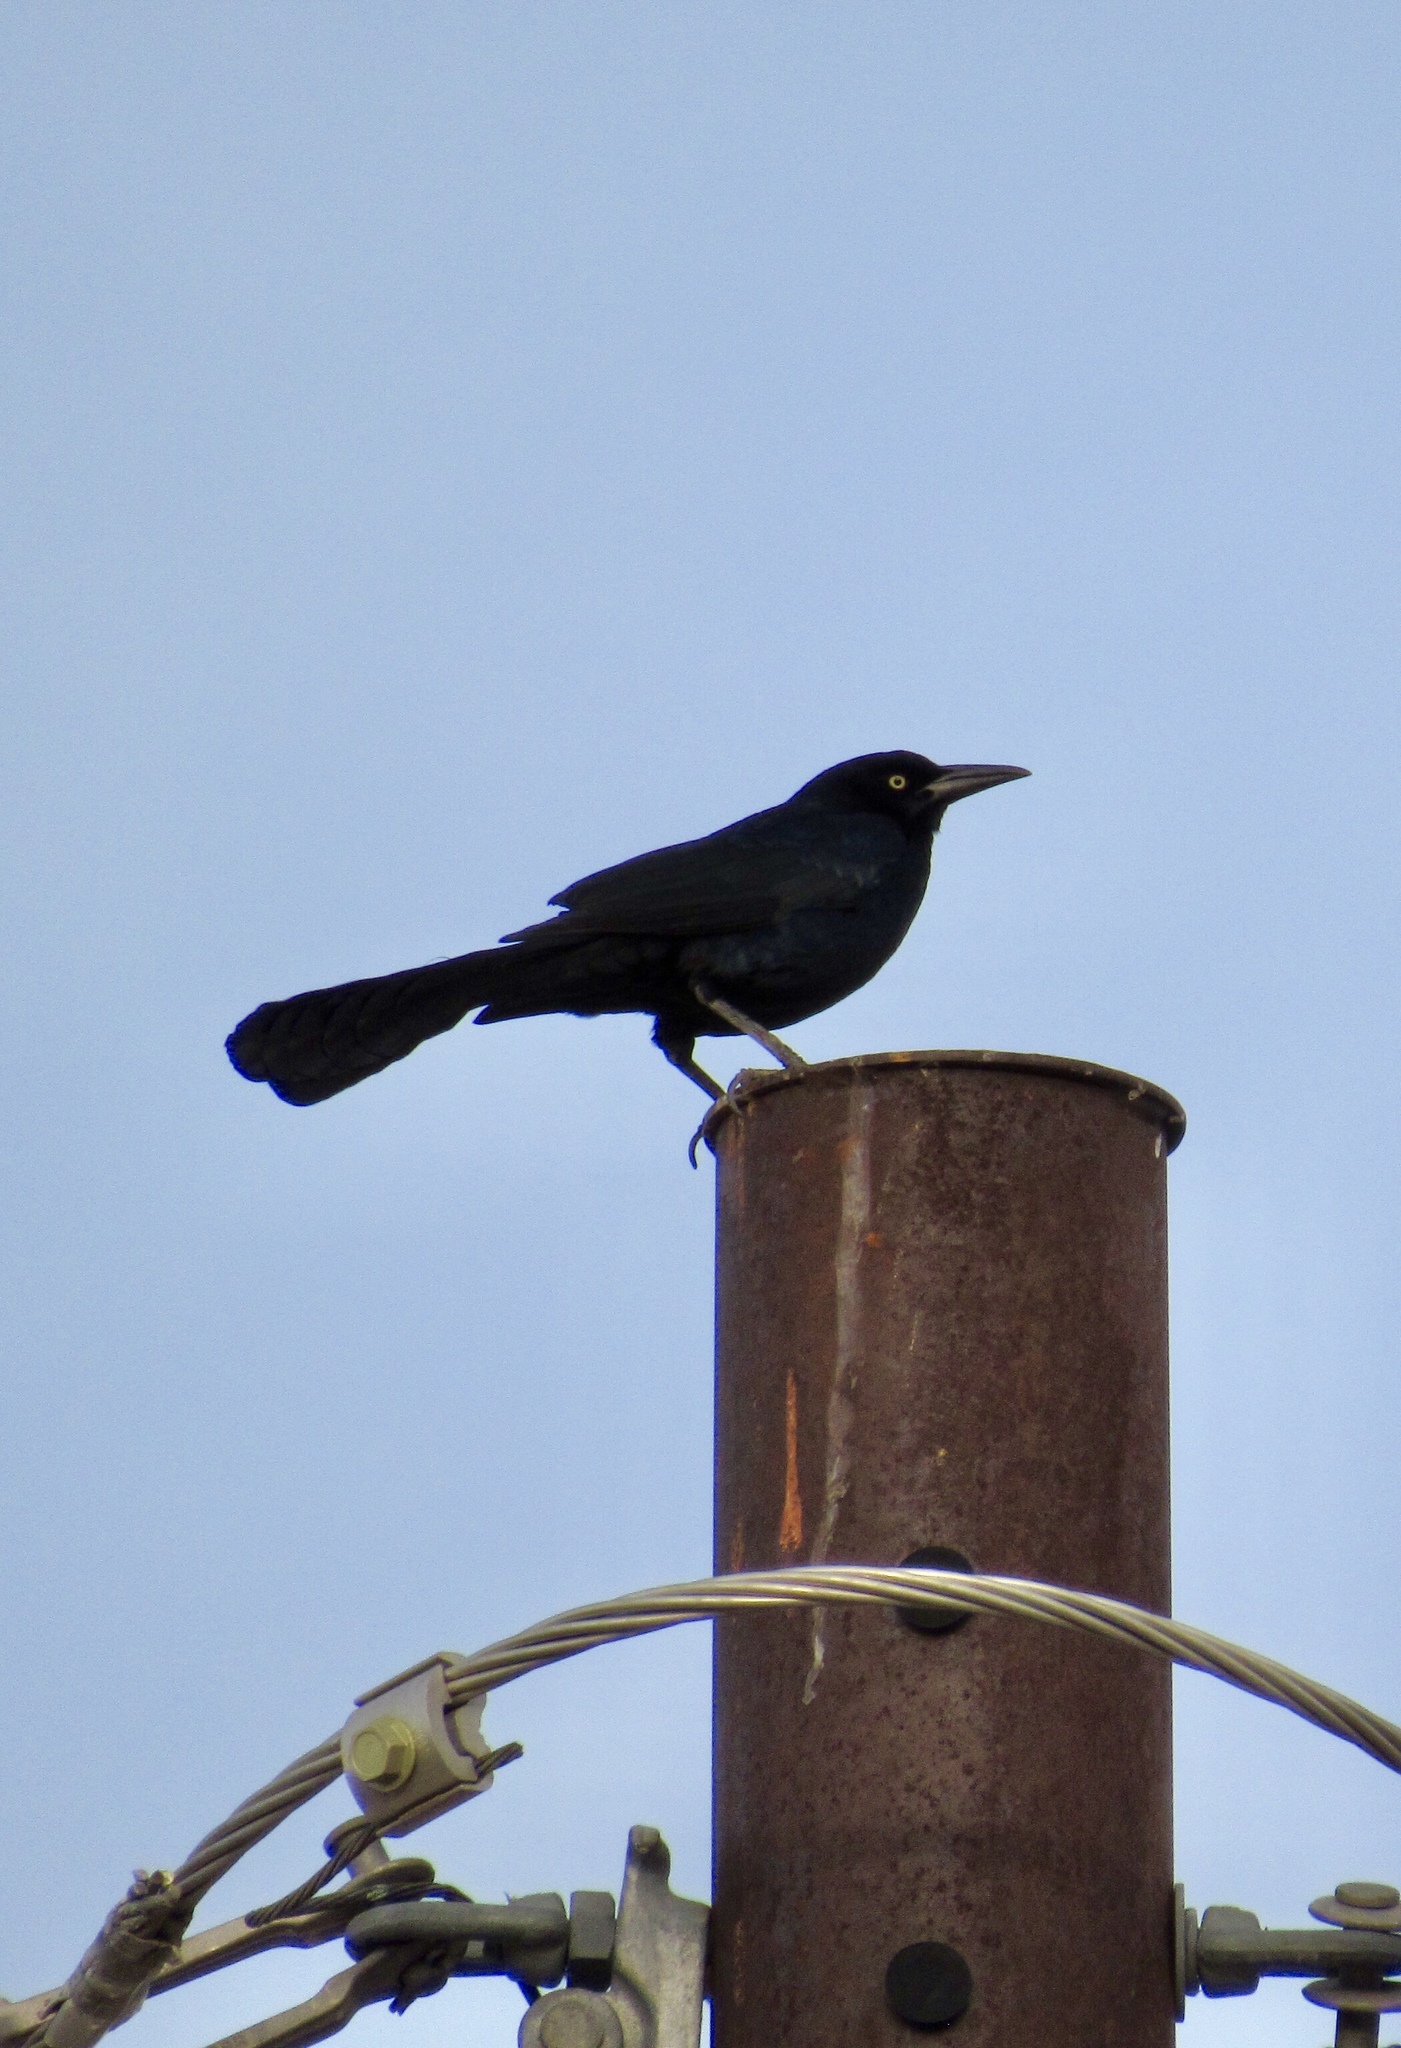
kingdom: Animalia
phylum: Chordata
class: Aves
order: Passeriformes
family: Icteridae
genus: Quiscalus
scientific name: Quiscalus mexicanus
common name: Great-tailed grackle
